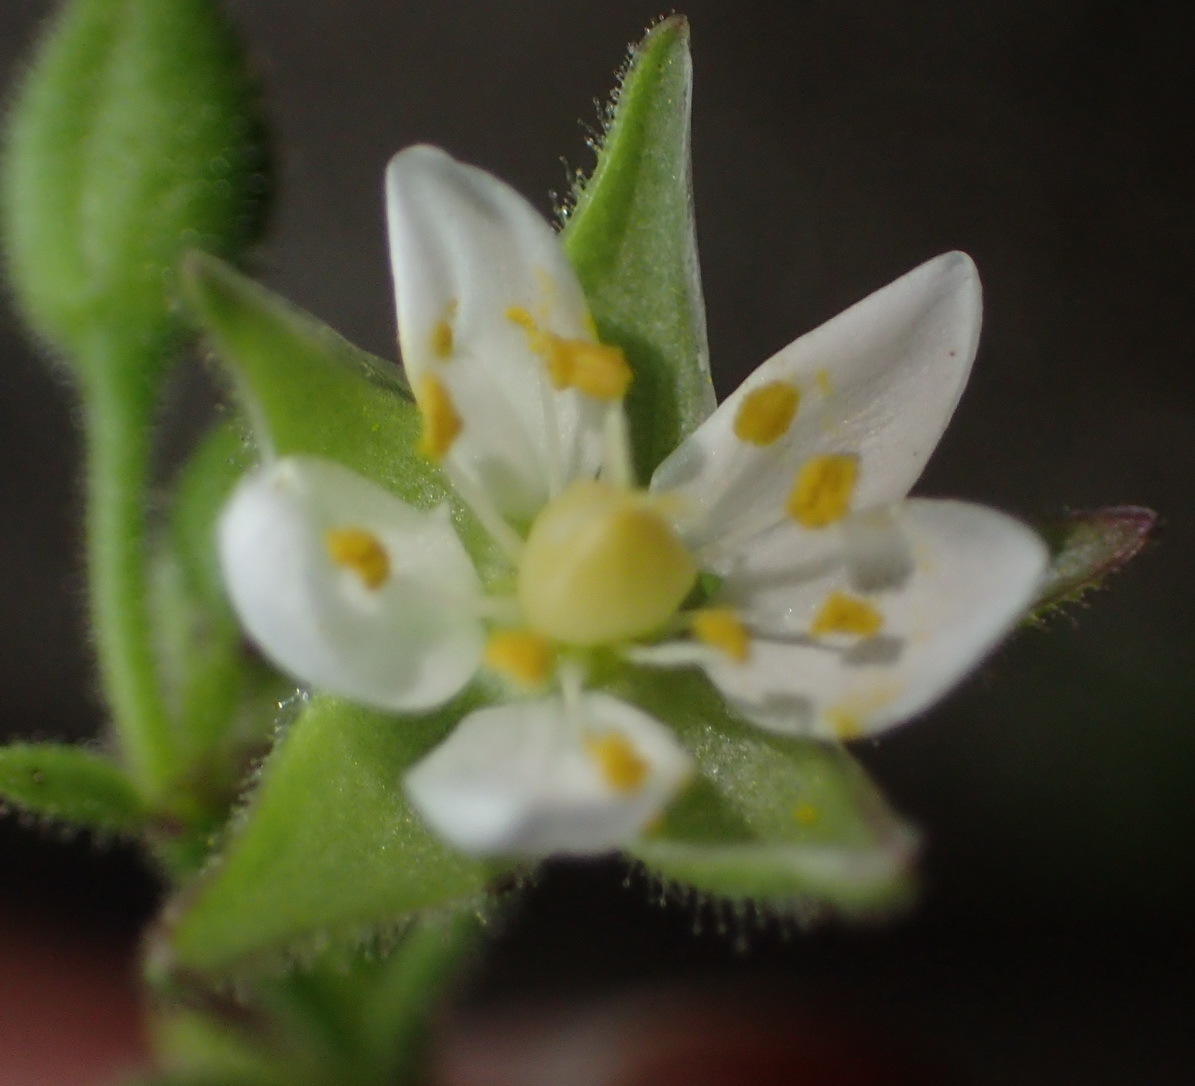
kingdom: Plantae
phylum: Tracheophyta
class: Magnoliopsida
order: Caryophyllales
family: Caryophyllaceae
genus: Spergularia
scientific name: Spergularia media
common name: Greater sea-spurrey
